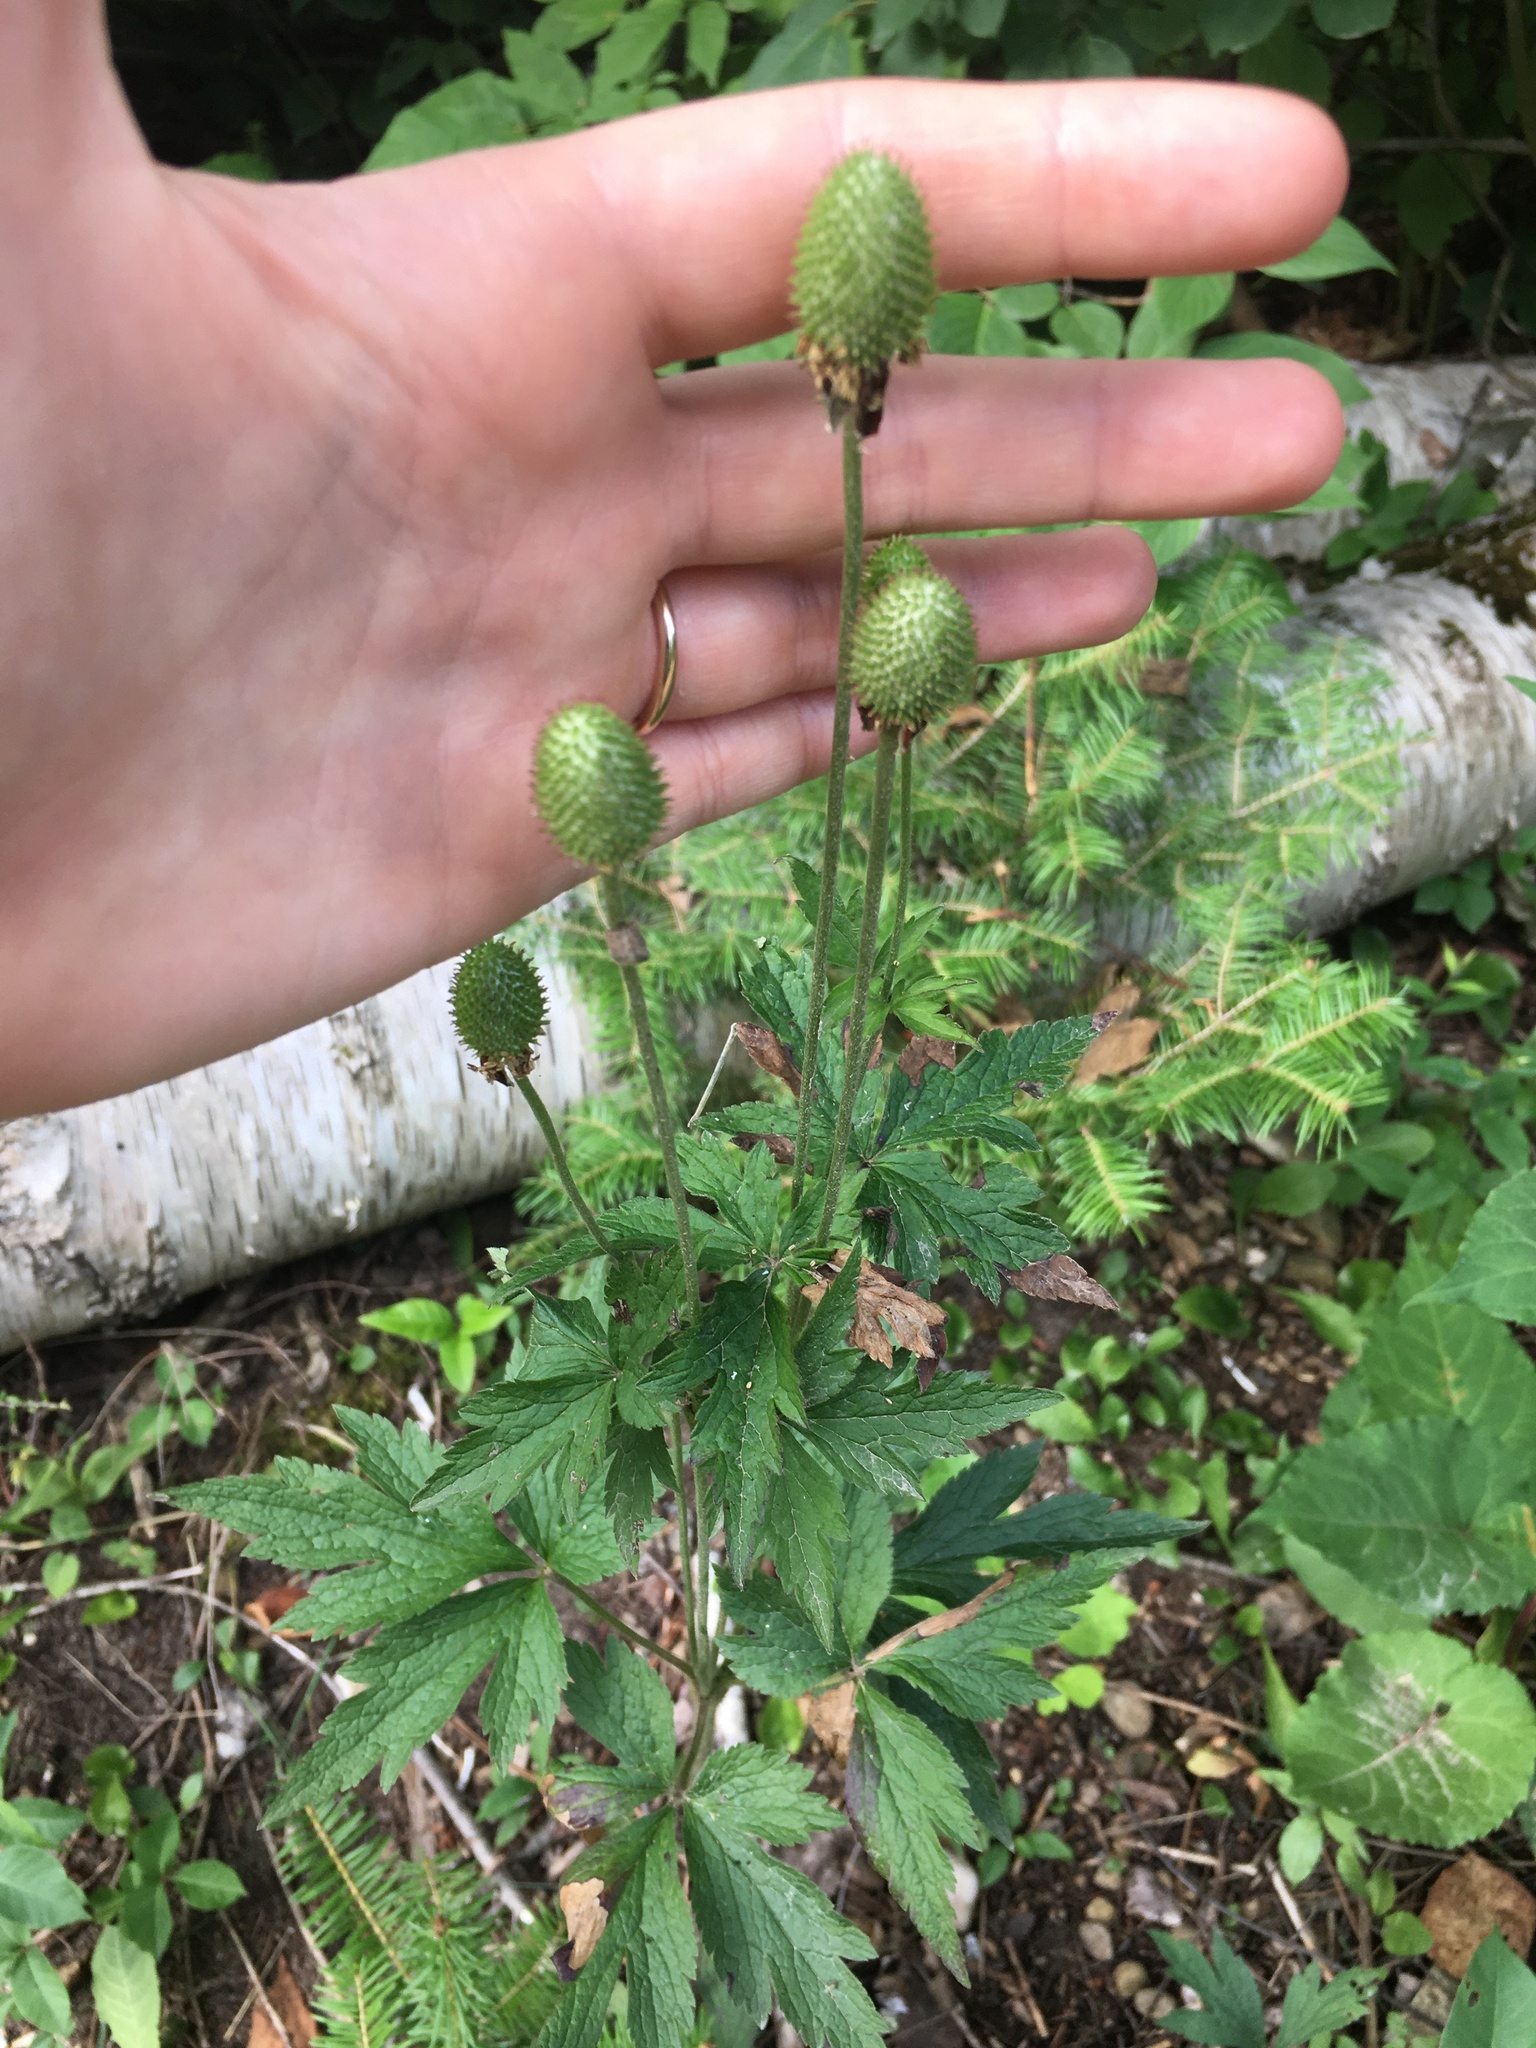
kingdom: Plantae
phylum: Tracheophyta
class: Magnoliopsida
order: Ranunculales
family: Ranunculaceae
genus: Anemone
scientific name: Anemone virginiana
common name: Tall anemone
